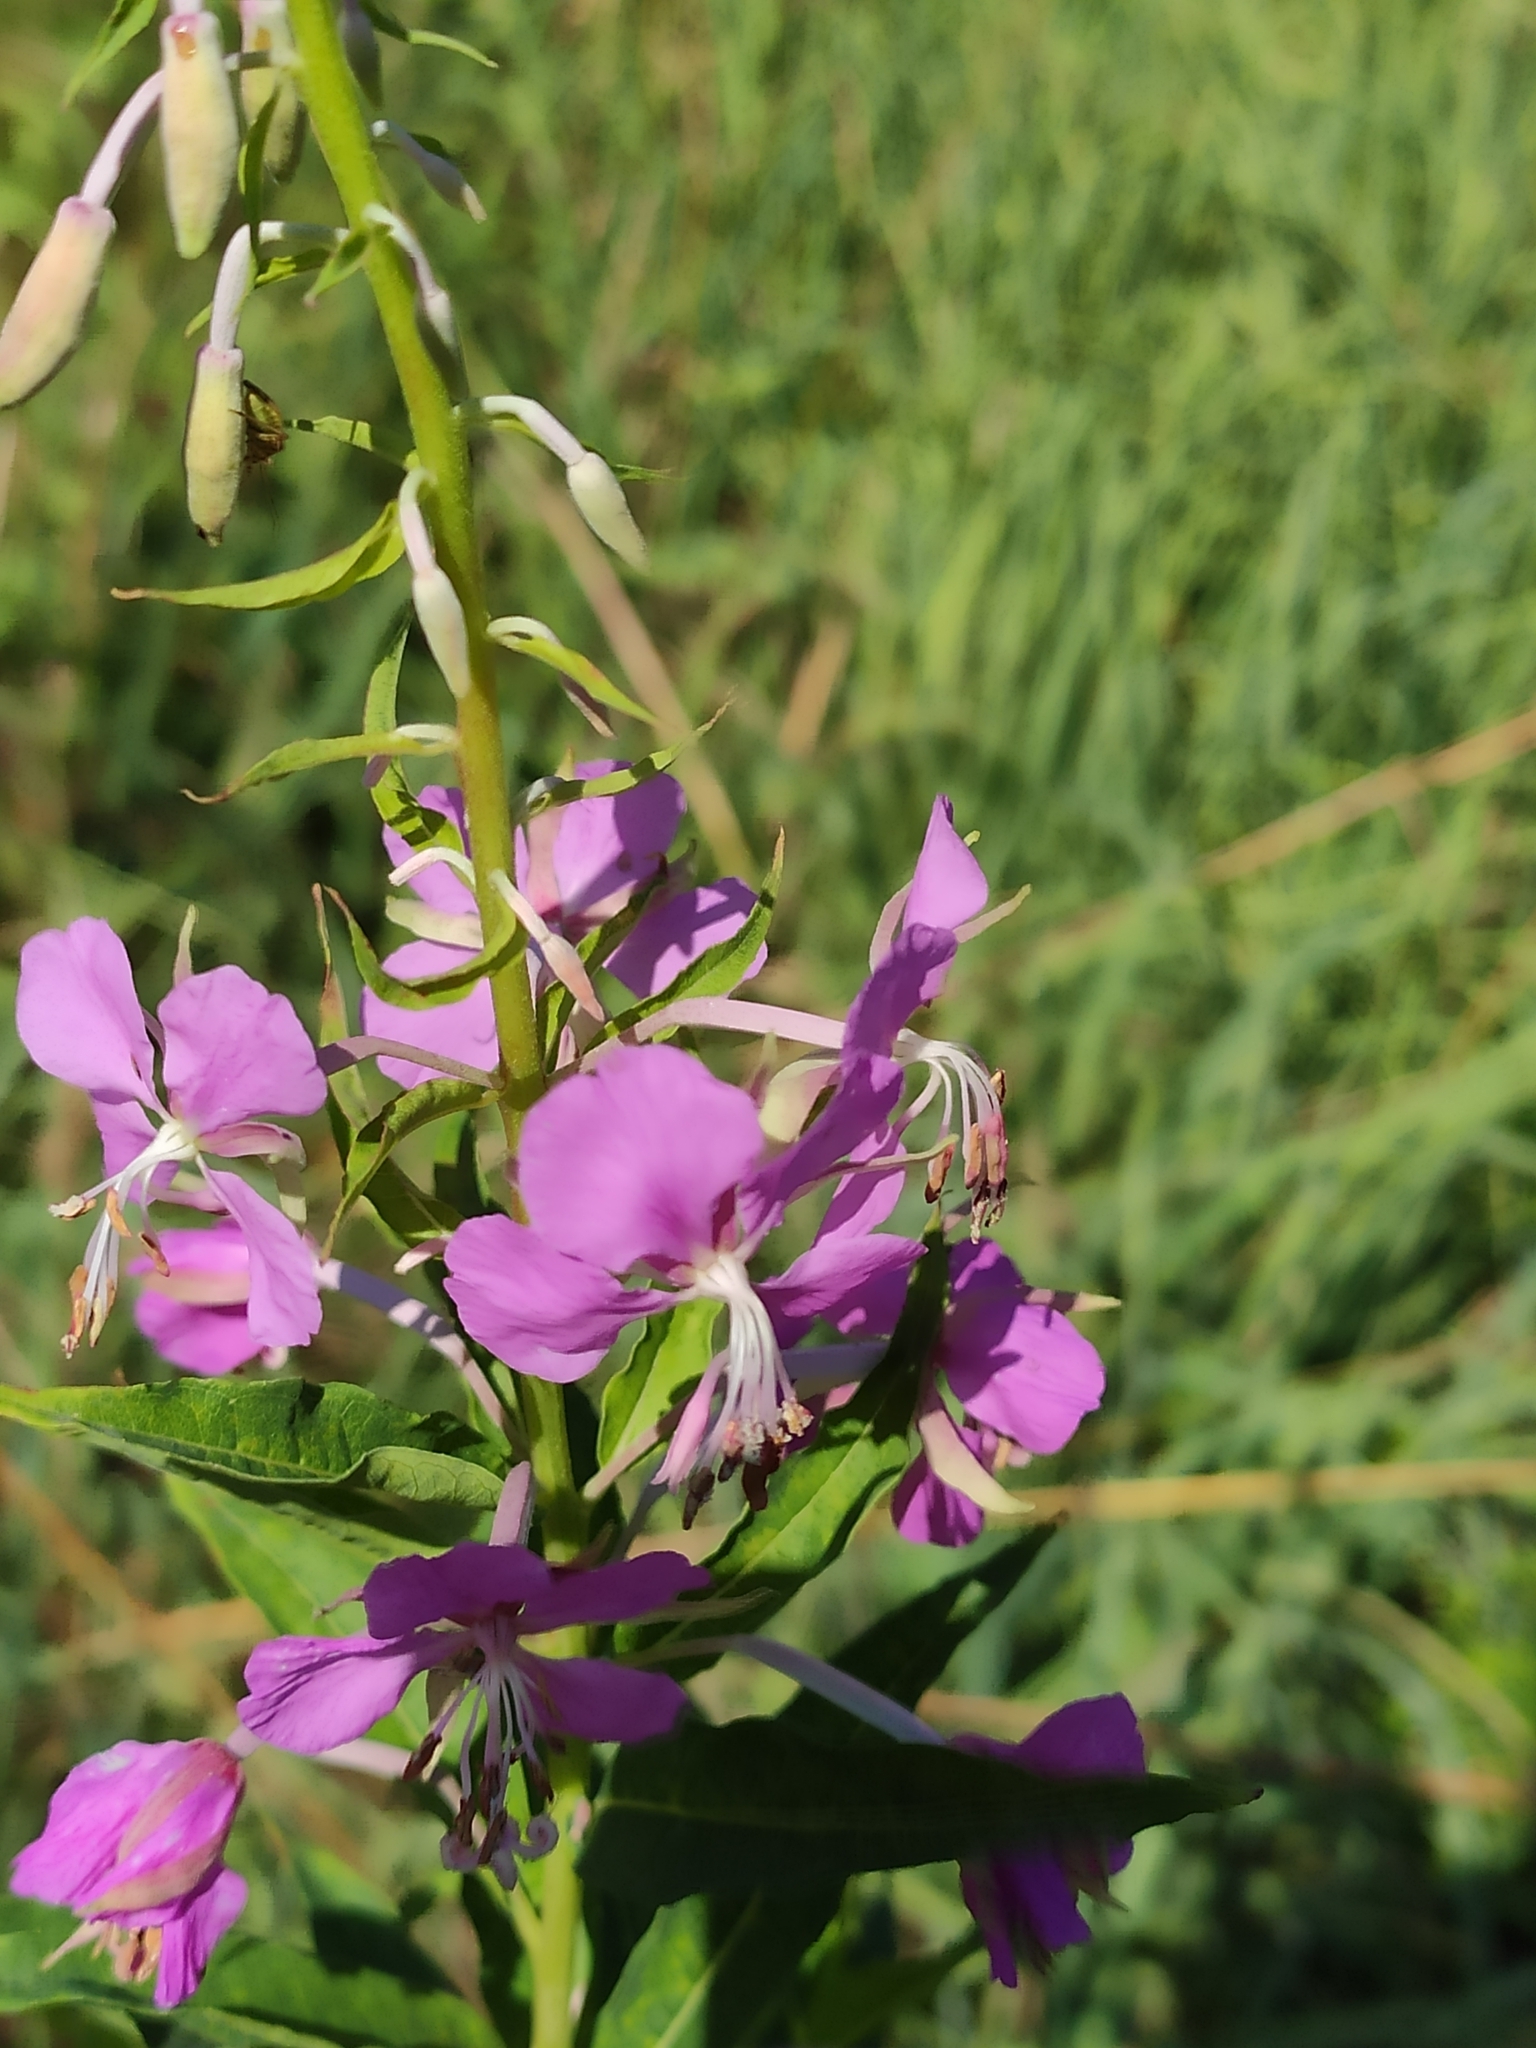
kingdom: Plantae
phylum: Tracheophyta
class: Magnoliopsida
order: Myrtales
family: Onagraceae
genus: Chamaenerion
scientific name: Chamaenerion angustifolium
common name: Fireweed
